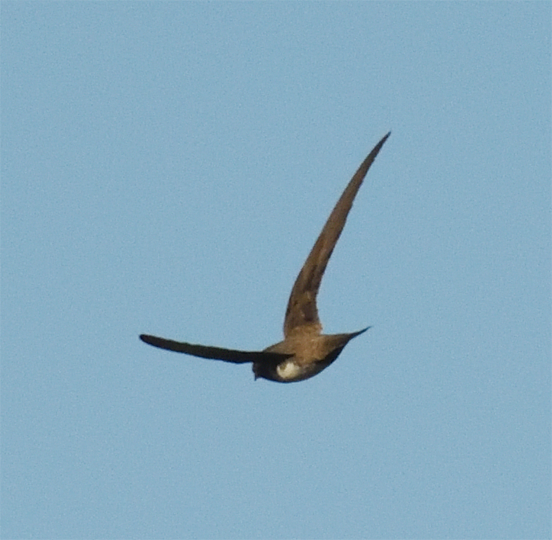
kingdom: Animalia
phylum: Chordata
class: Aves
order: Apodiformes
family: Apodidae
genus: Tachymarptis
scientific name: Tachymarptis melba
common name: Alpine swift
